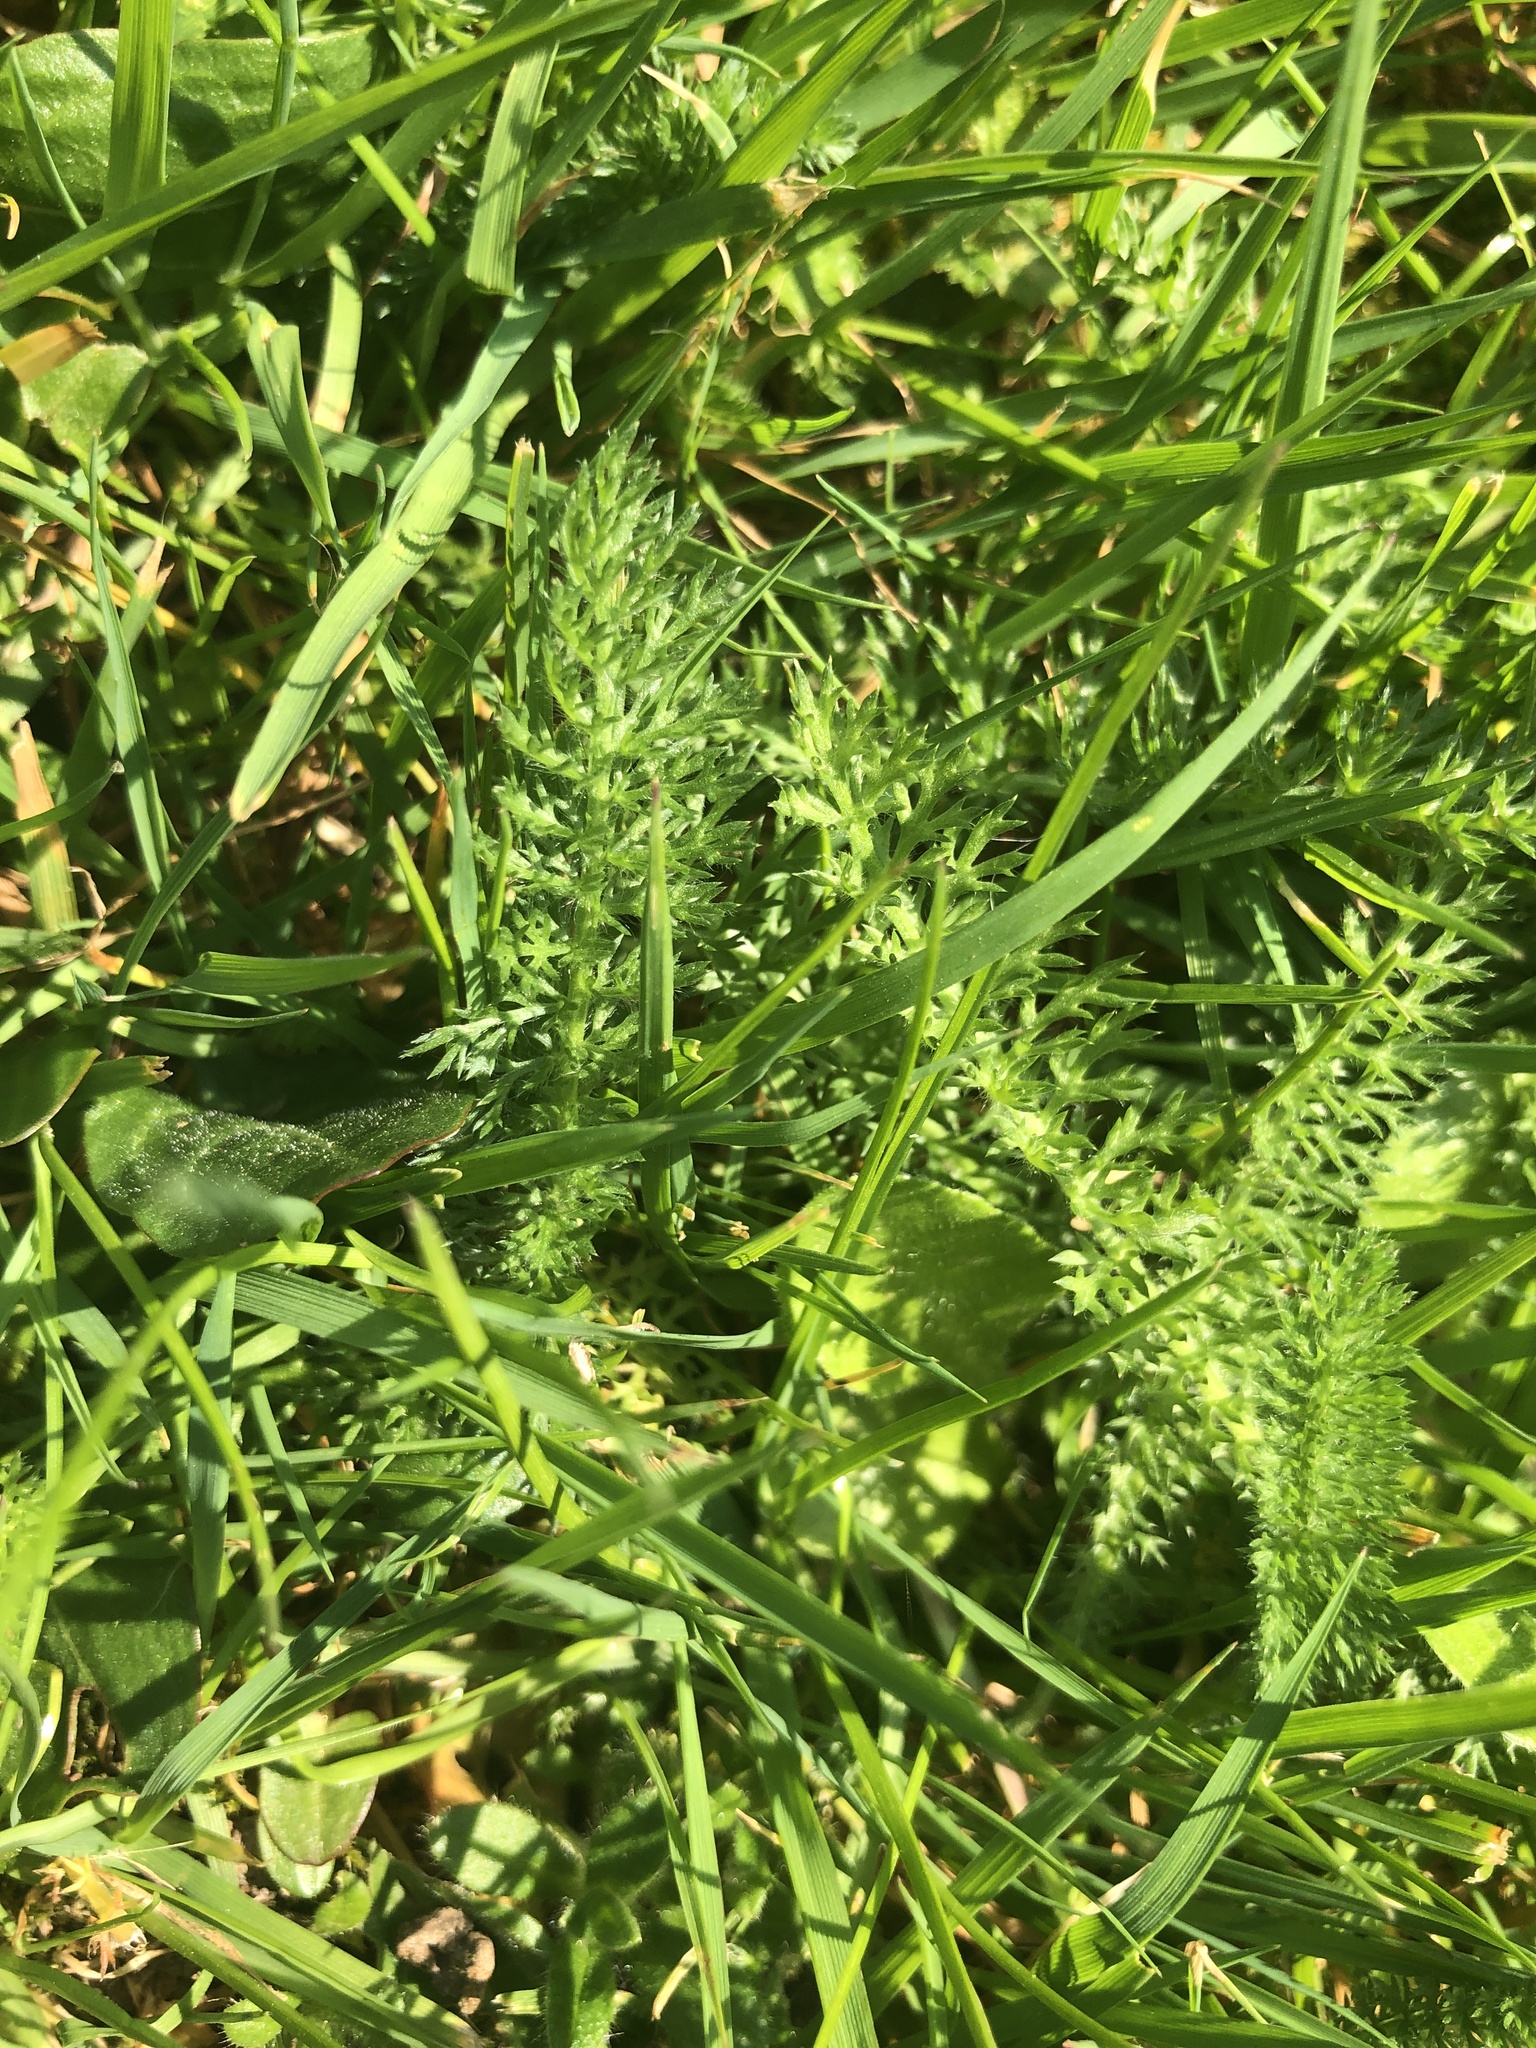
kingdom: Plantae
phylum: Tracheophyta
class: Magnoliopsida
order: Asterales
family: Asteraceae
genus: Achillea
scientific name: Achillea millefolium
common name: Yarrow
